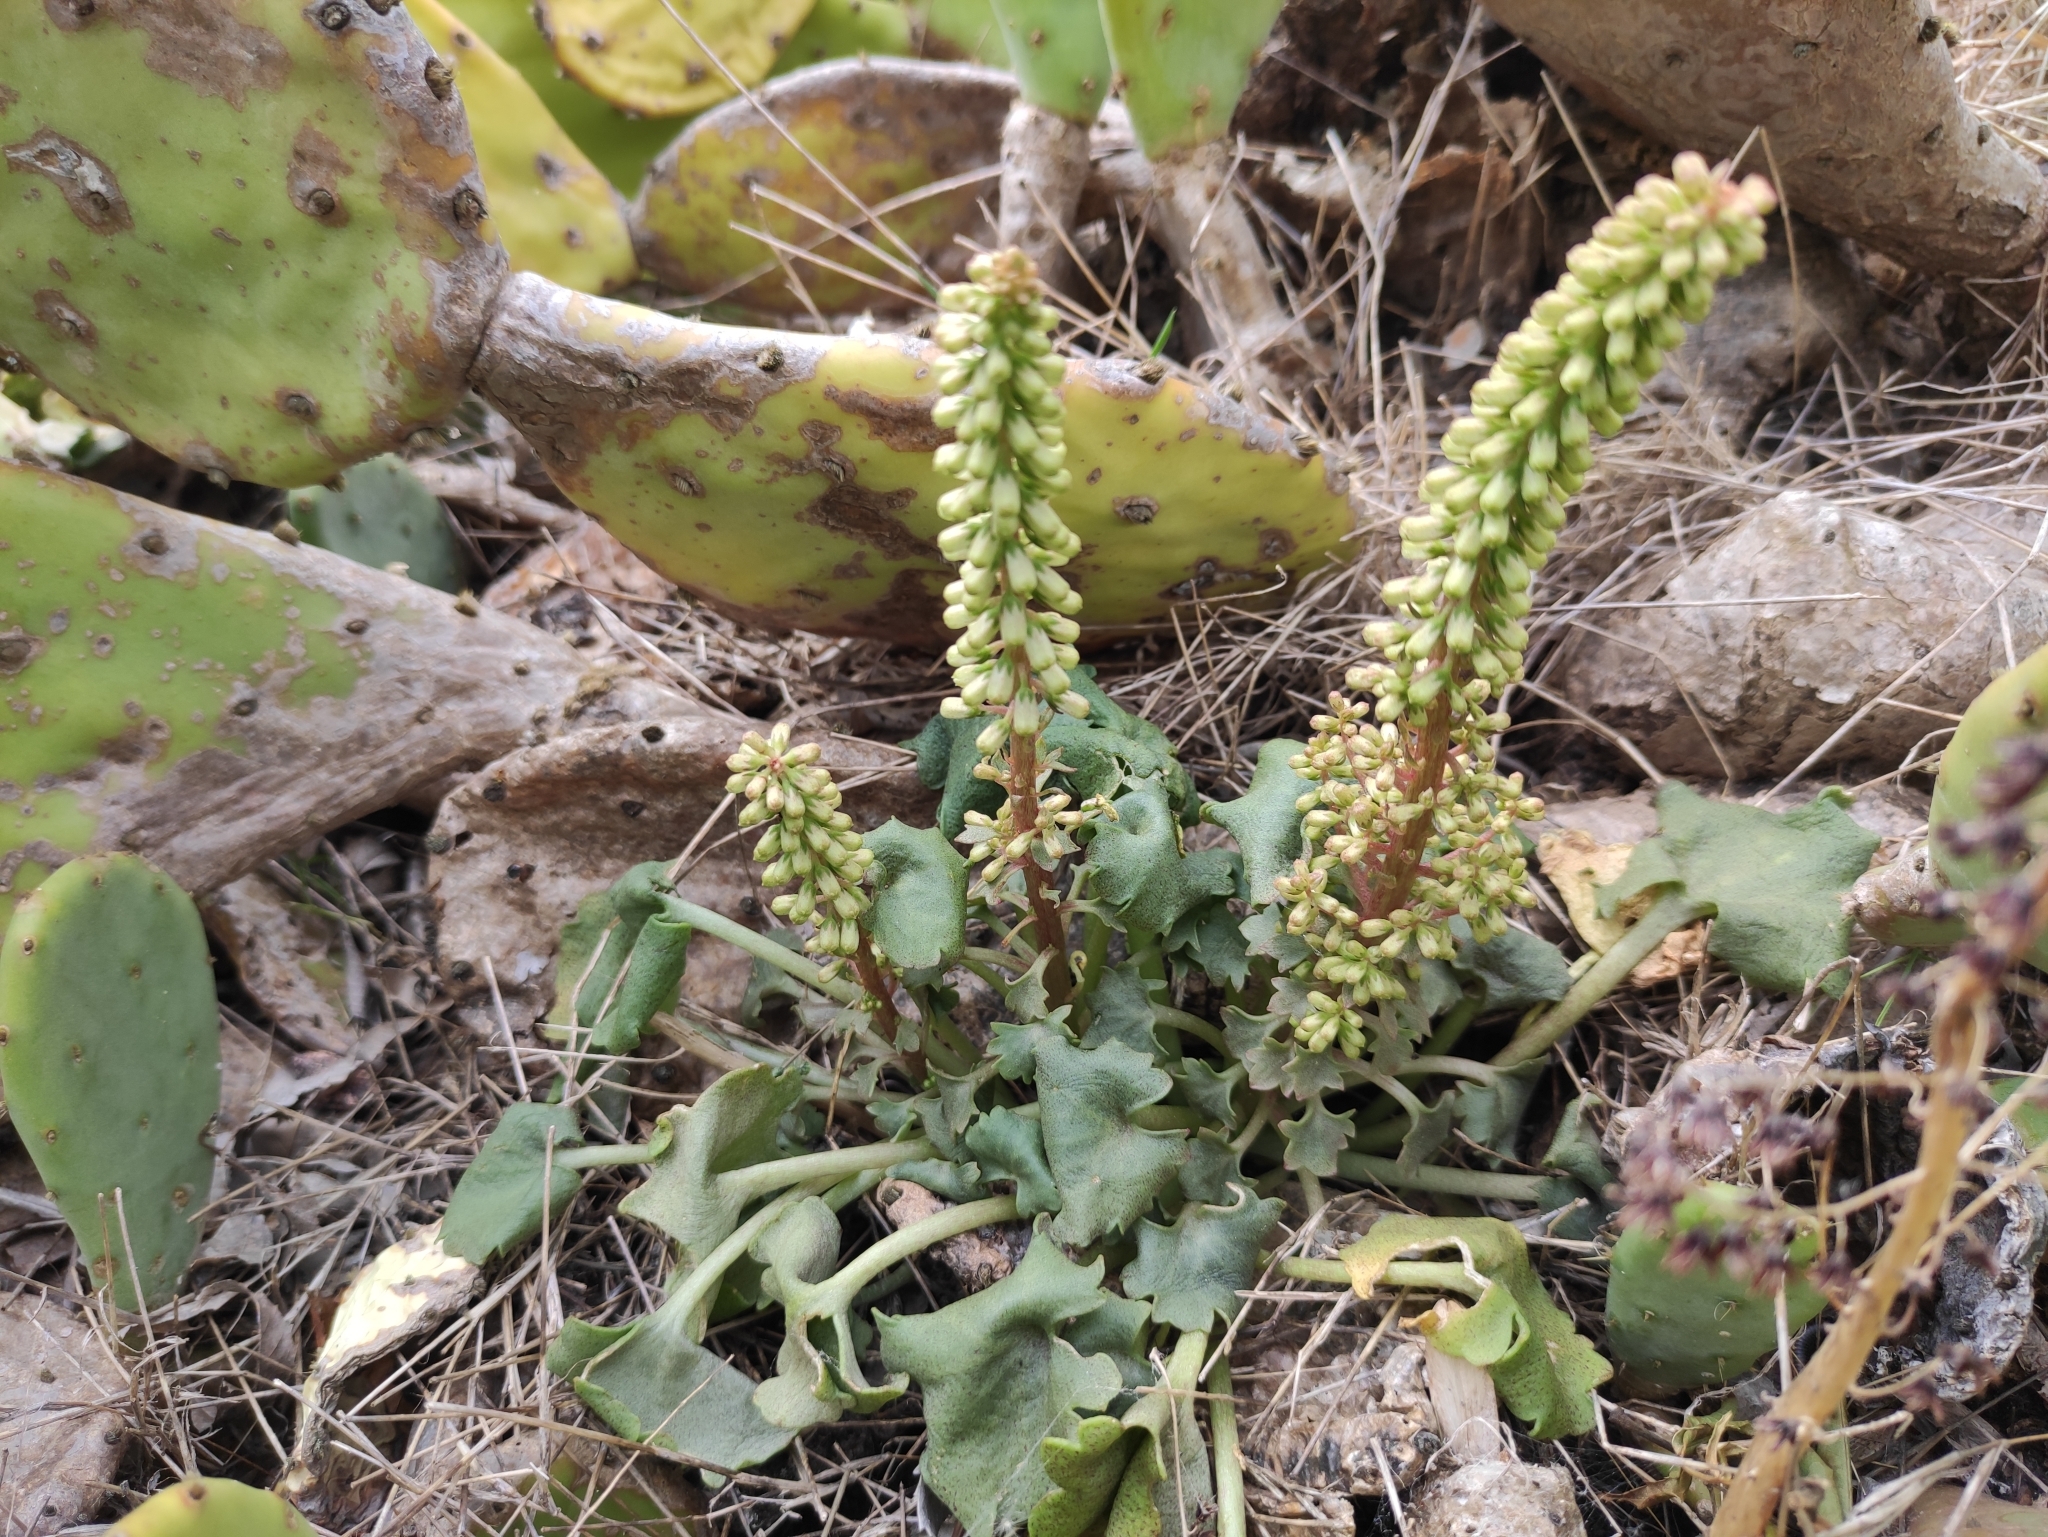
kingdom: Plantae
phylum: Tracheophyta
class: Magnoliopsida
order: Saxifragales
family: Crassulaceae
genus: Umbilicus
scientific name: Umbilicus rupestris
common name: Navelwort
